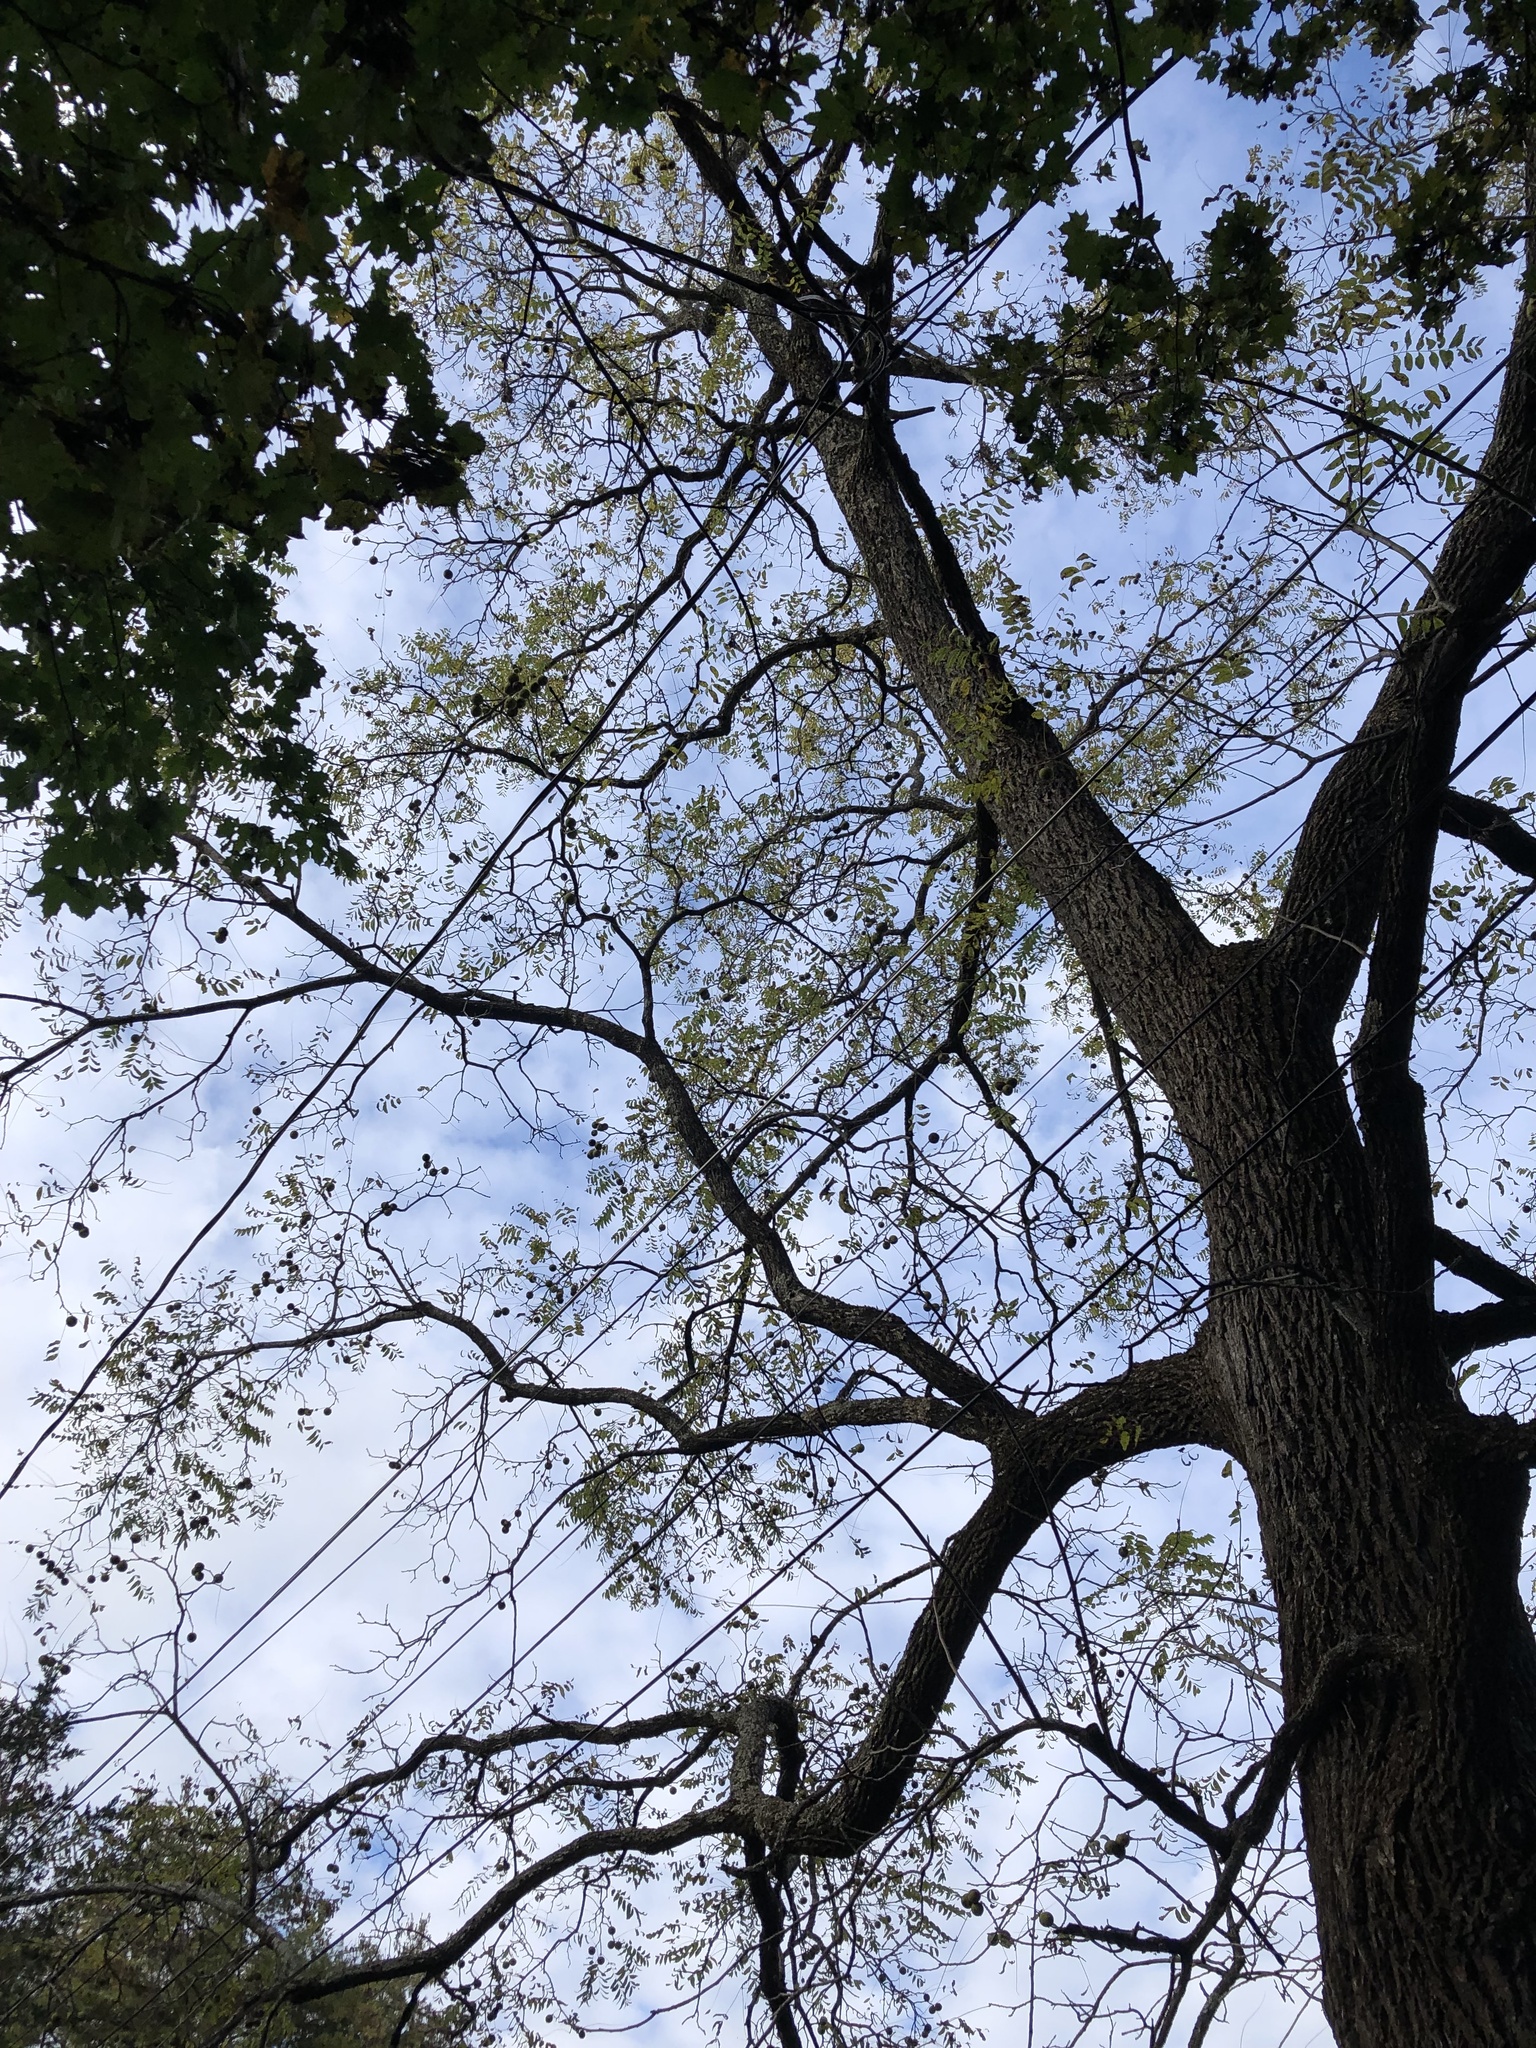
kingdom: Plantae
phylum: Tracheophyta
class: Magnoliopsida
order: Fagales
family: Juglandaceae
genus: Juglans
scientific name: Juglans nigra
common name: Black walnut
